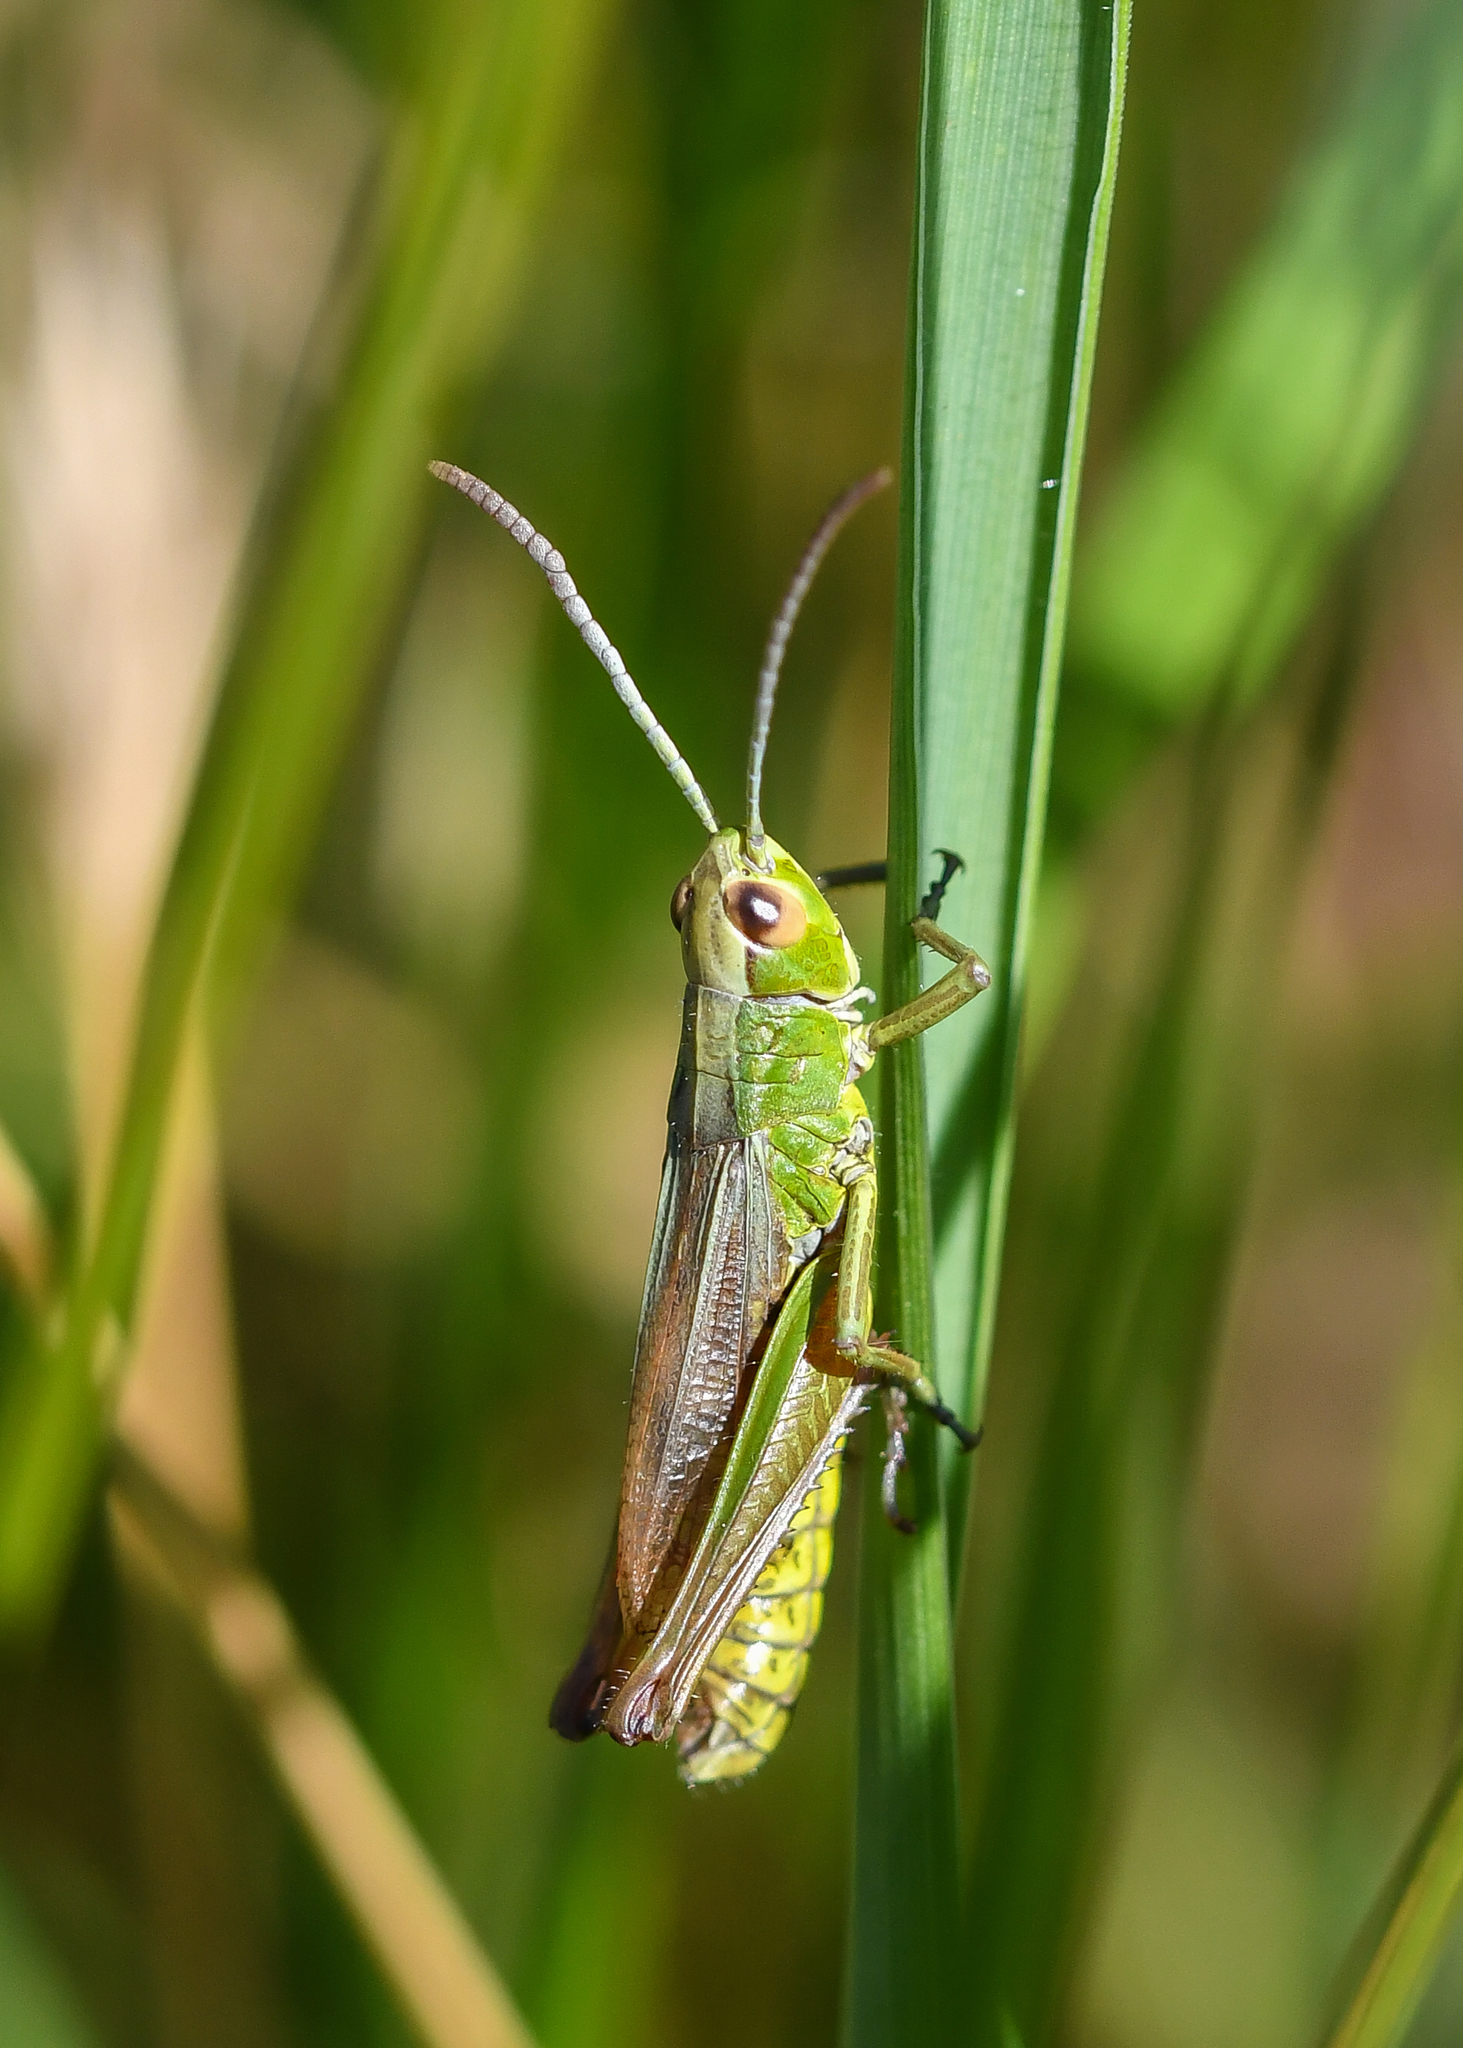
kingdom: Animalia
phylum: Arthropoda
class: Insecta
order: Orthoptera
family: Acrididae
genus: Pseudochorthippus
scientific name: Pseudochorthippus parallelus
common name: Meadow grasshopper
